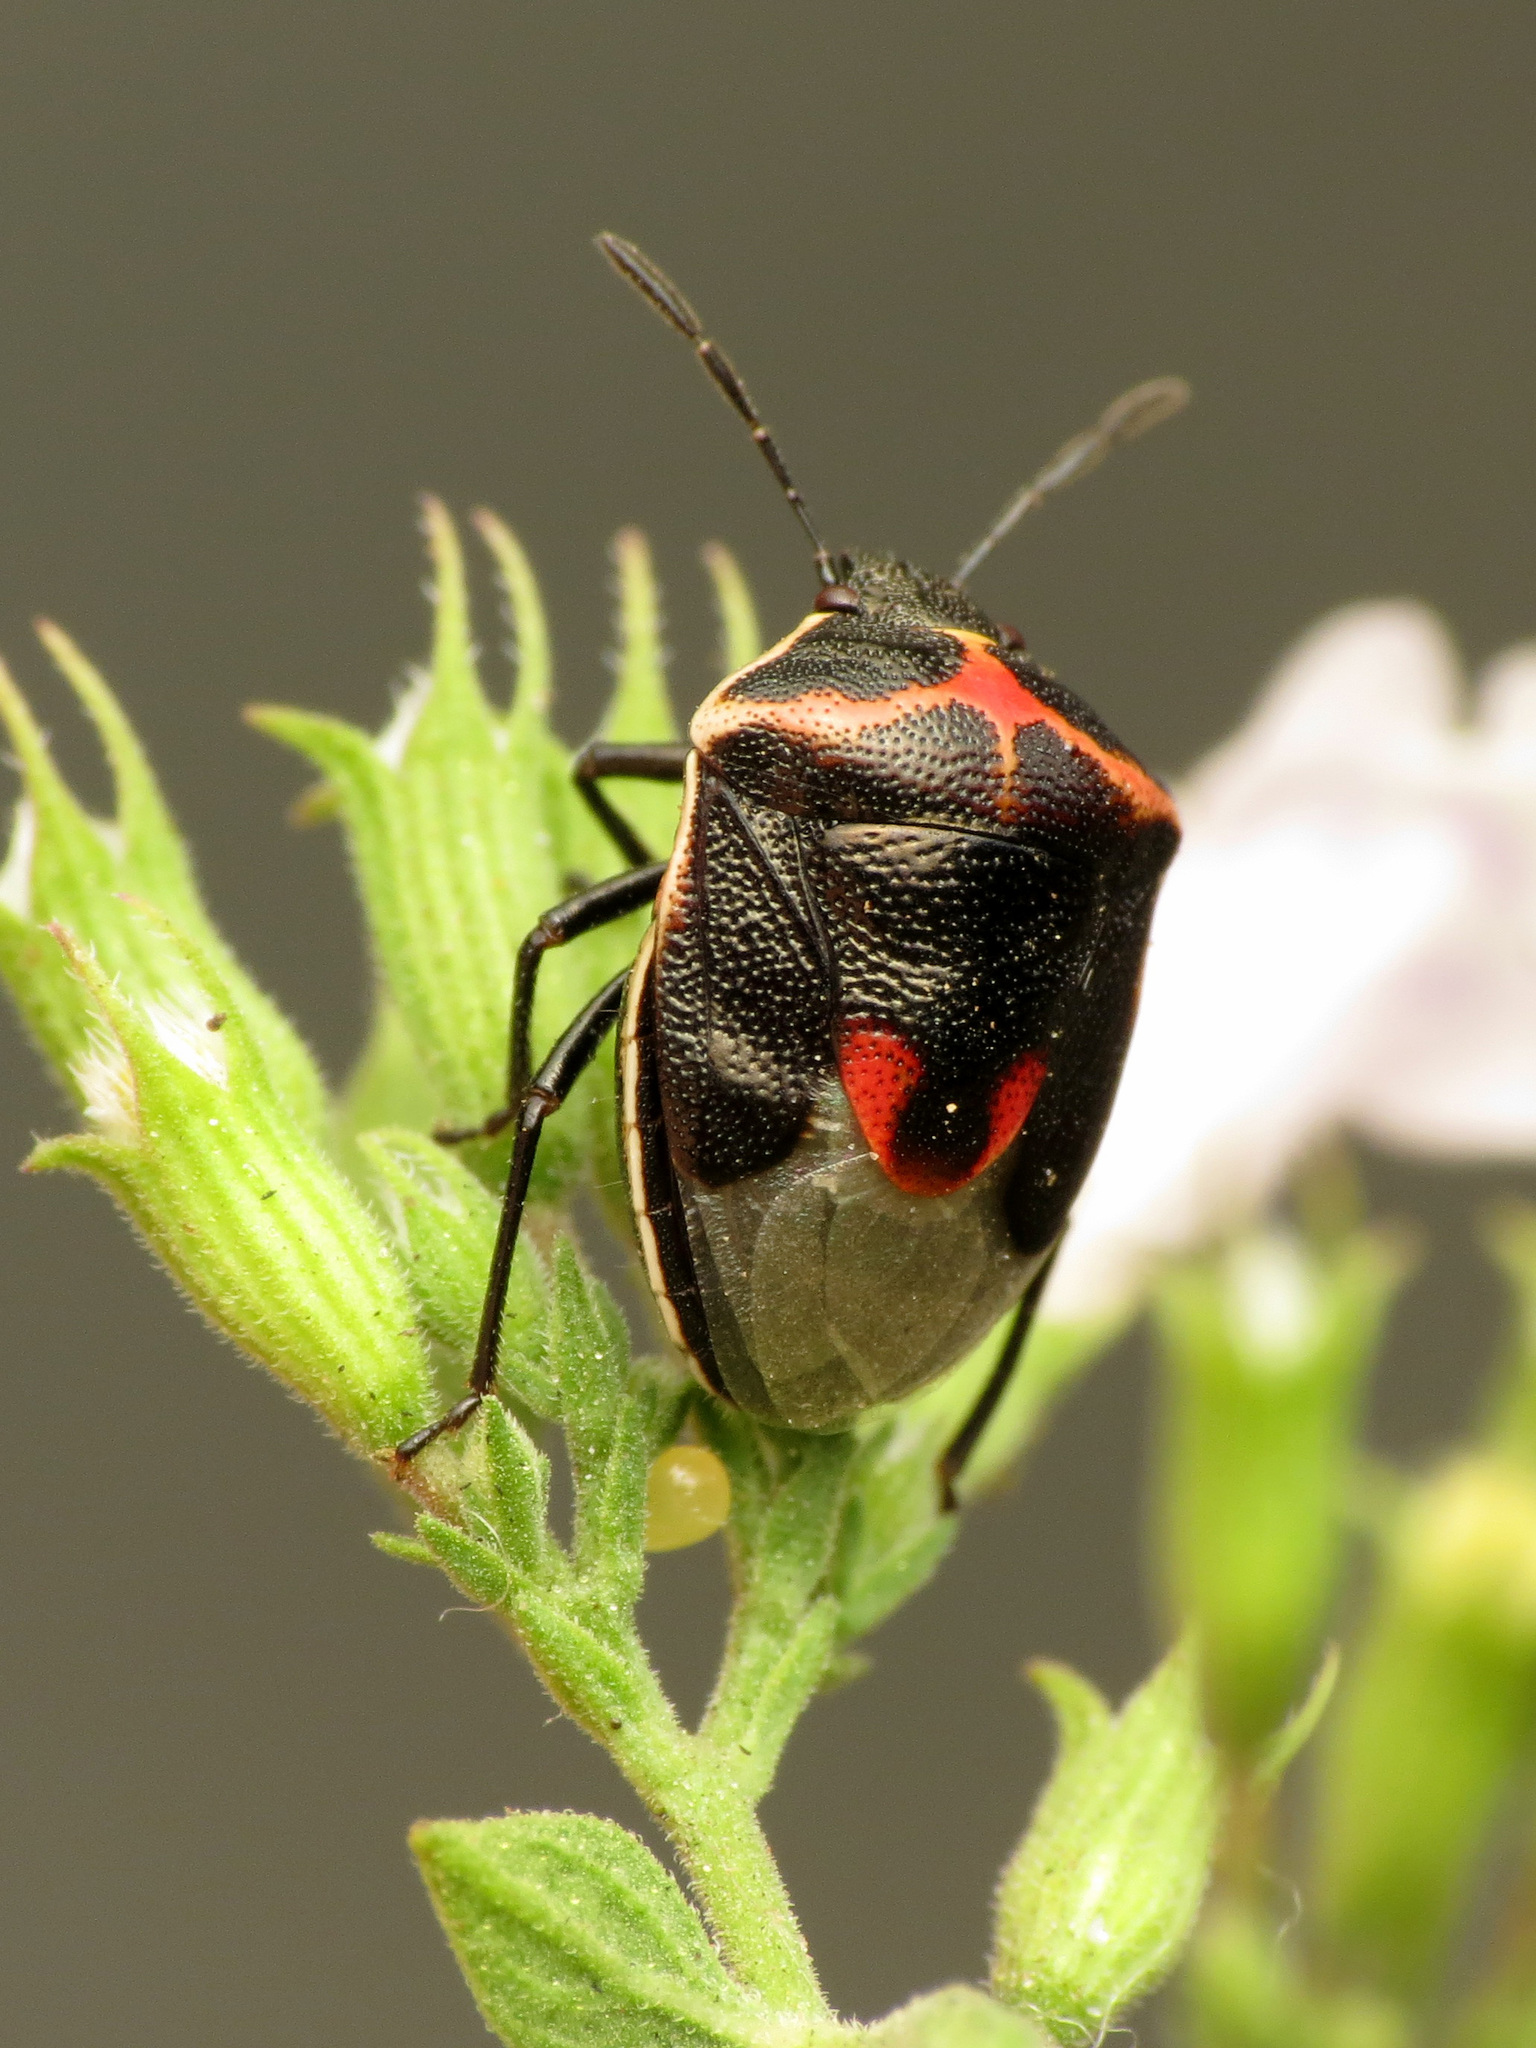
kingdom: Animalia
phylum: Arthropoda
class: Insecta
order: Hemiptera
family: Pentatomidae
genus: Cosmopepla
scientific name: Cosmopepla lintneriana
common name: Twice-stabbed stink bug
